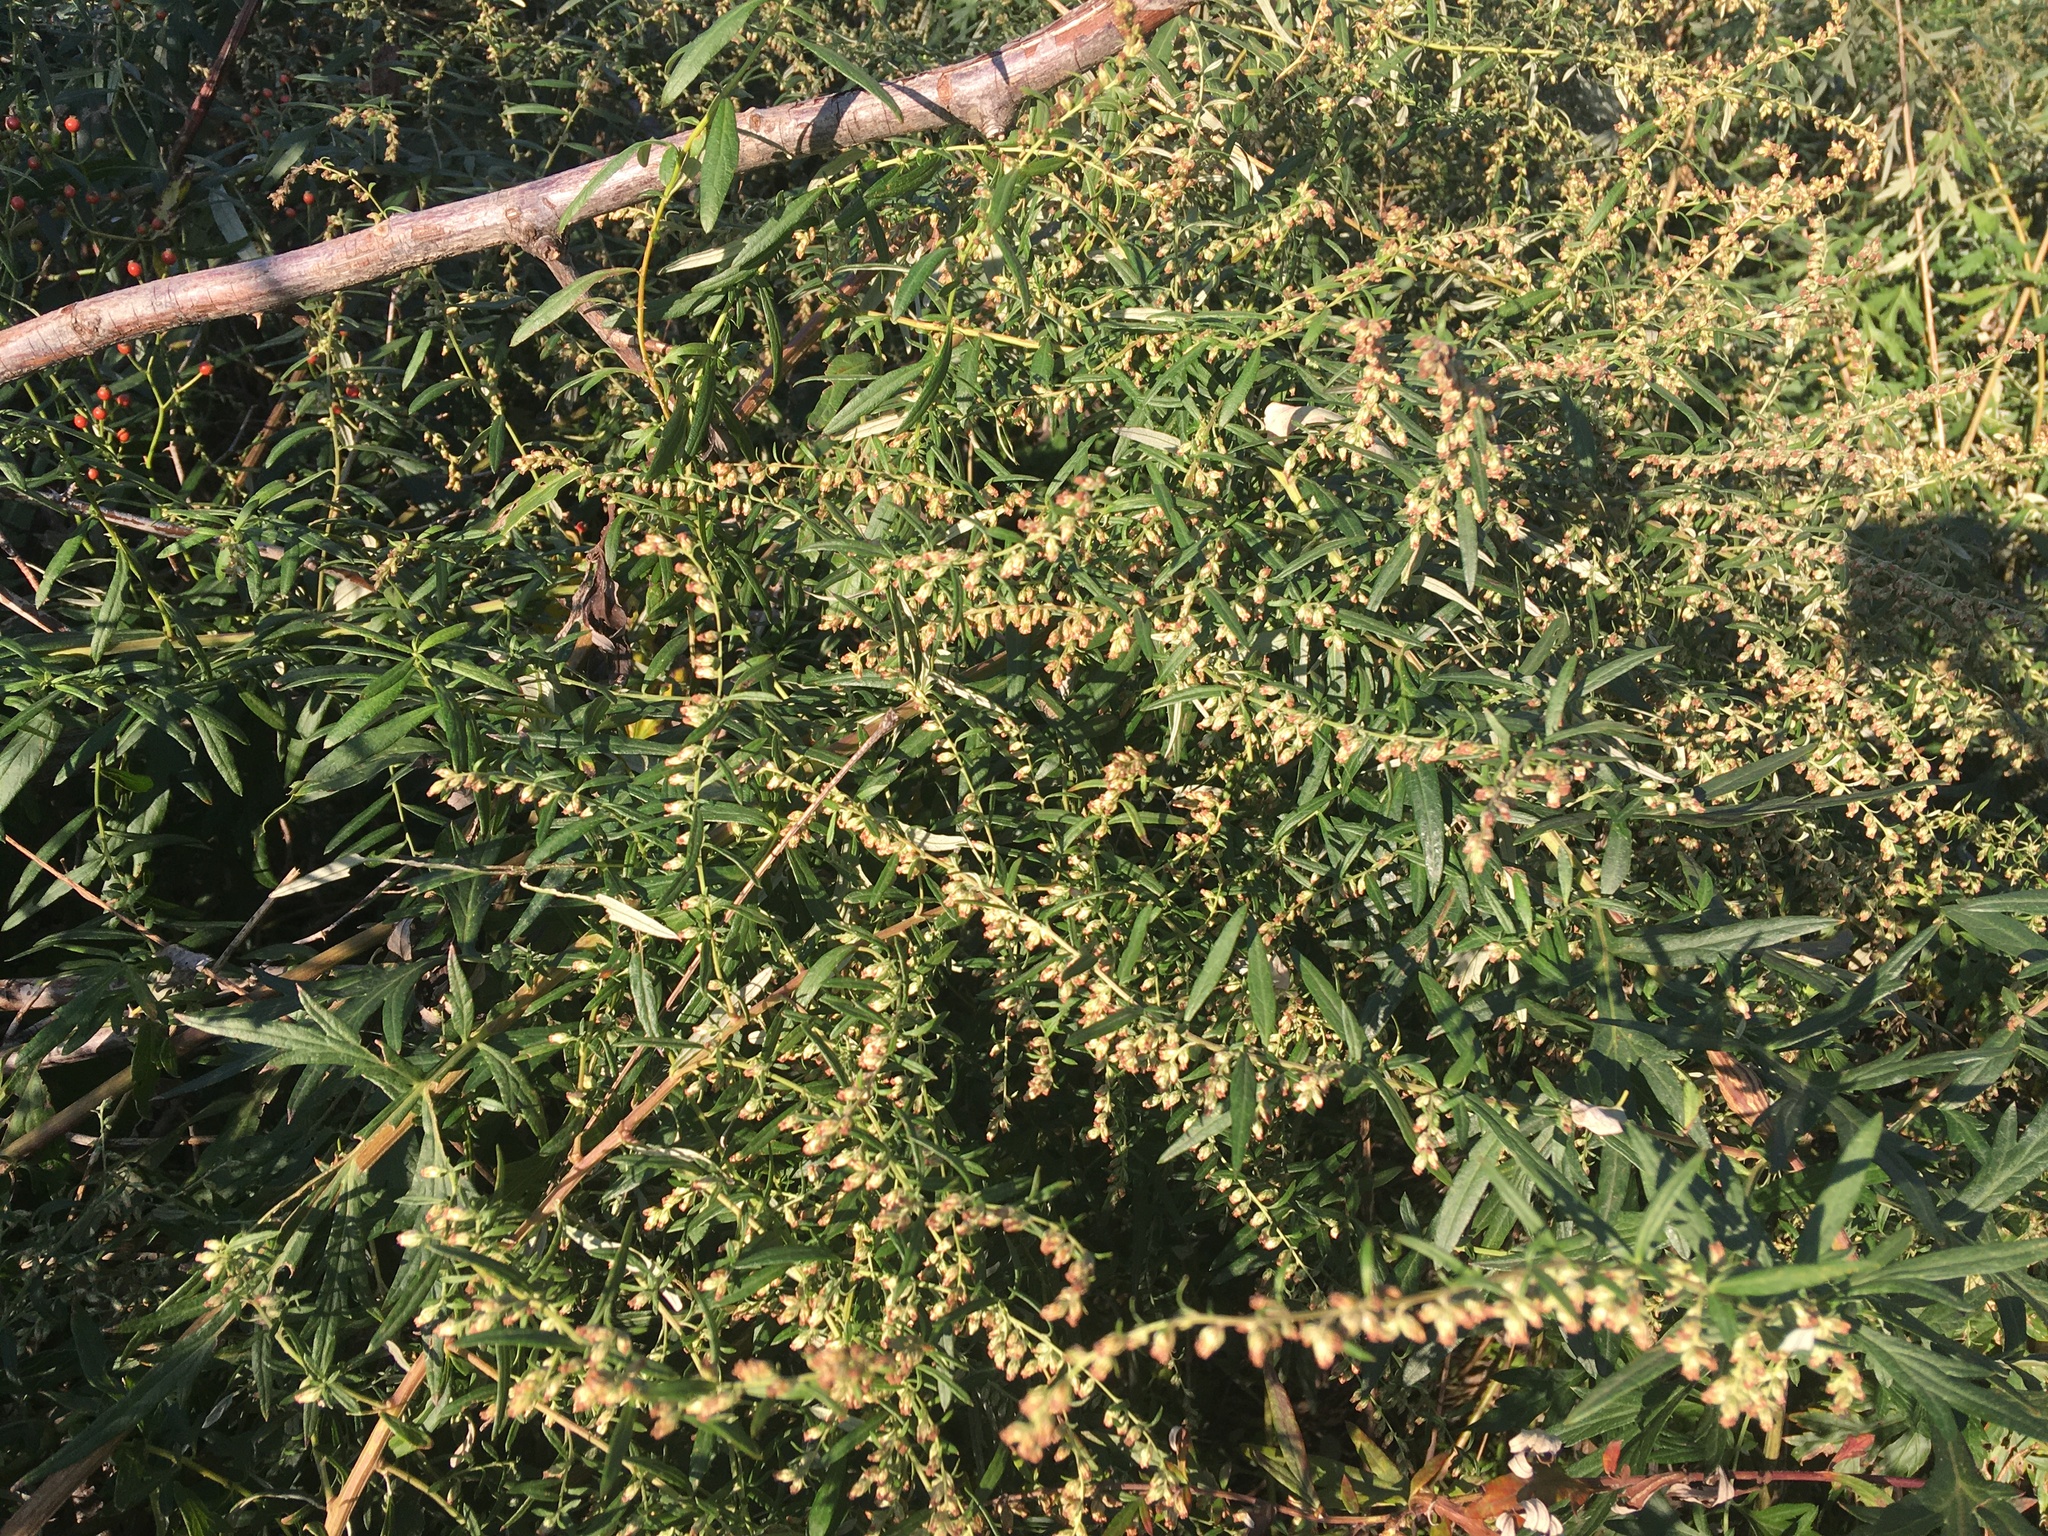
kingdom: Plantae
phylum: Tracheophyta
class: Magnoliopsida
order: Asterales
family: Asteraceae
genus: Artemisia
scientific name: Artemisia vulgaris
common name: Mugwort
